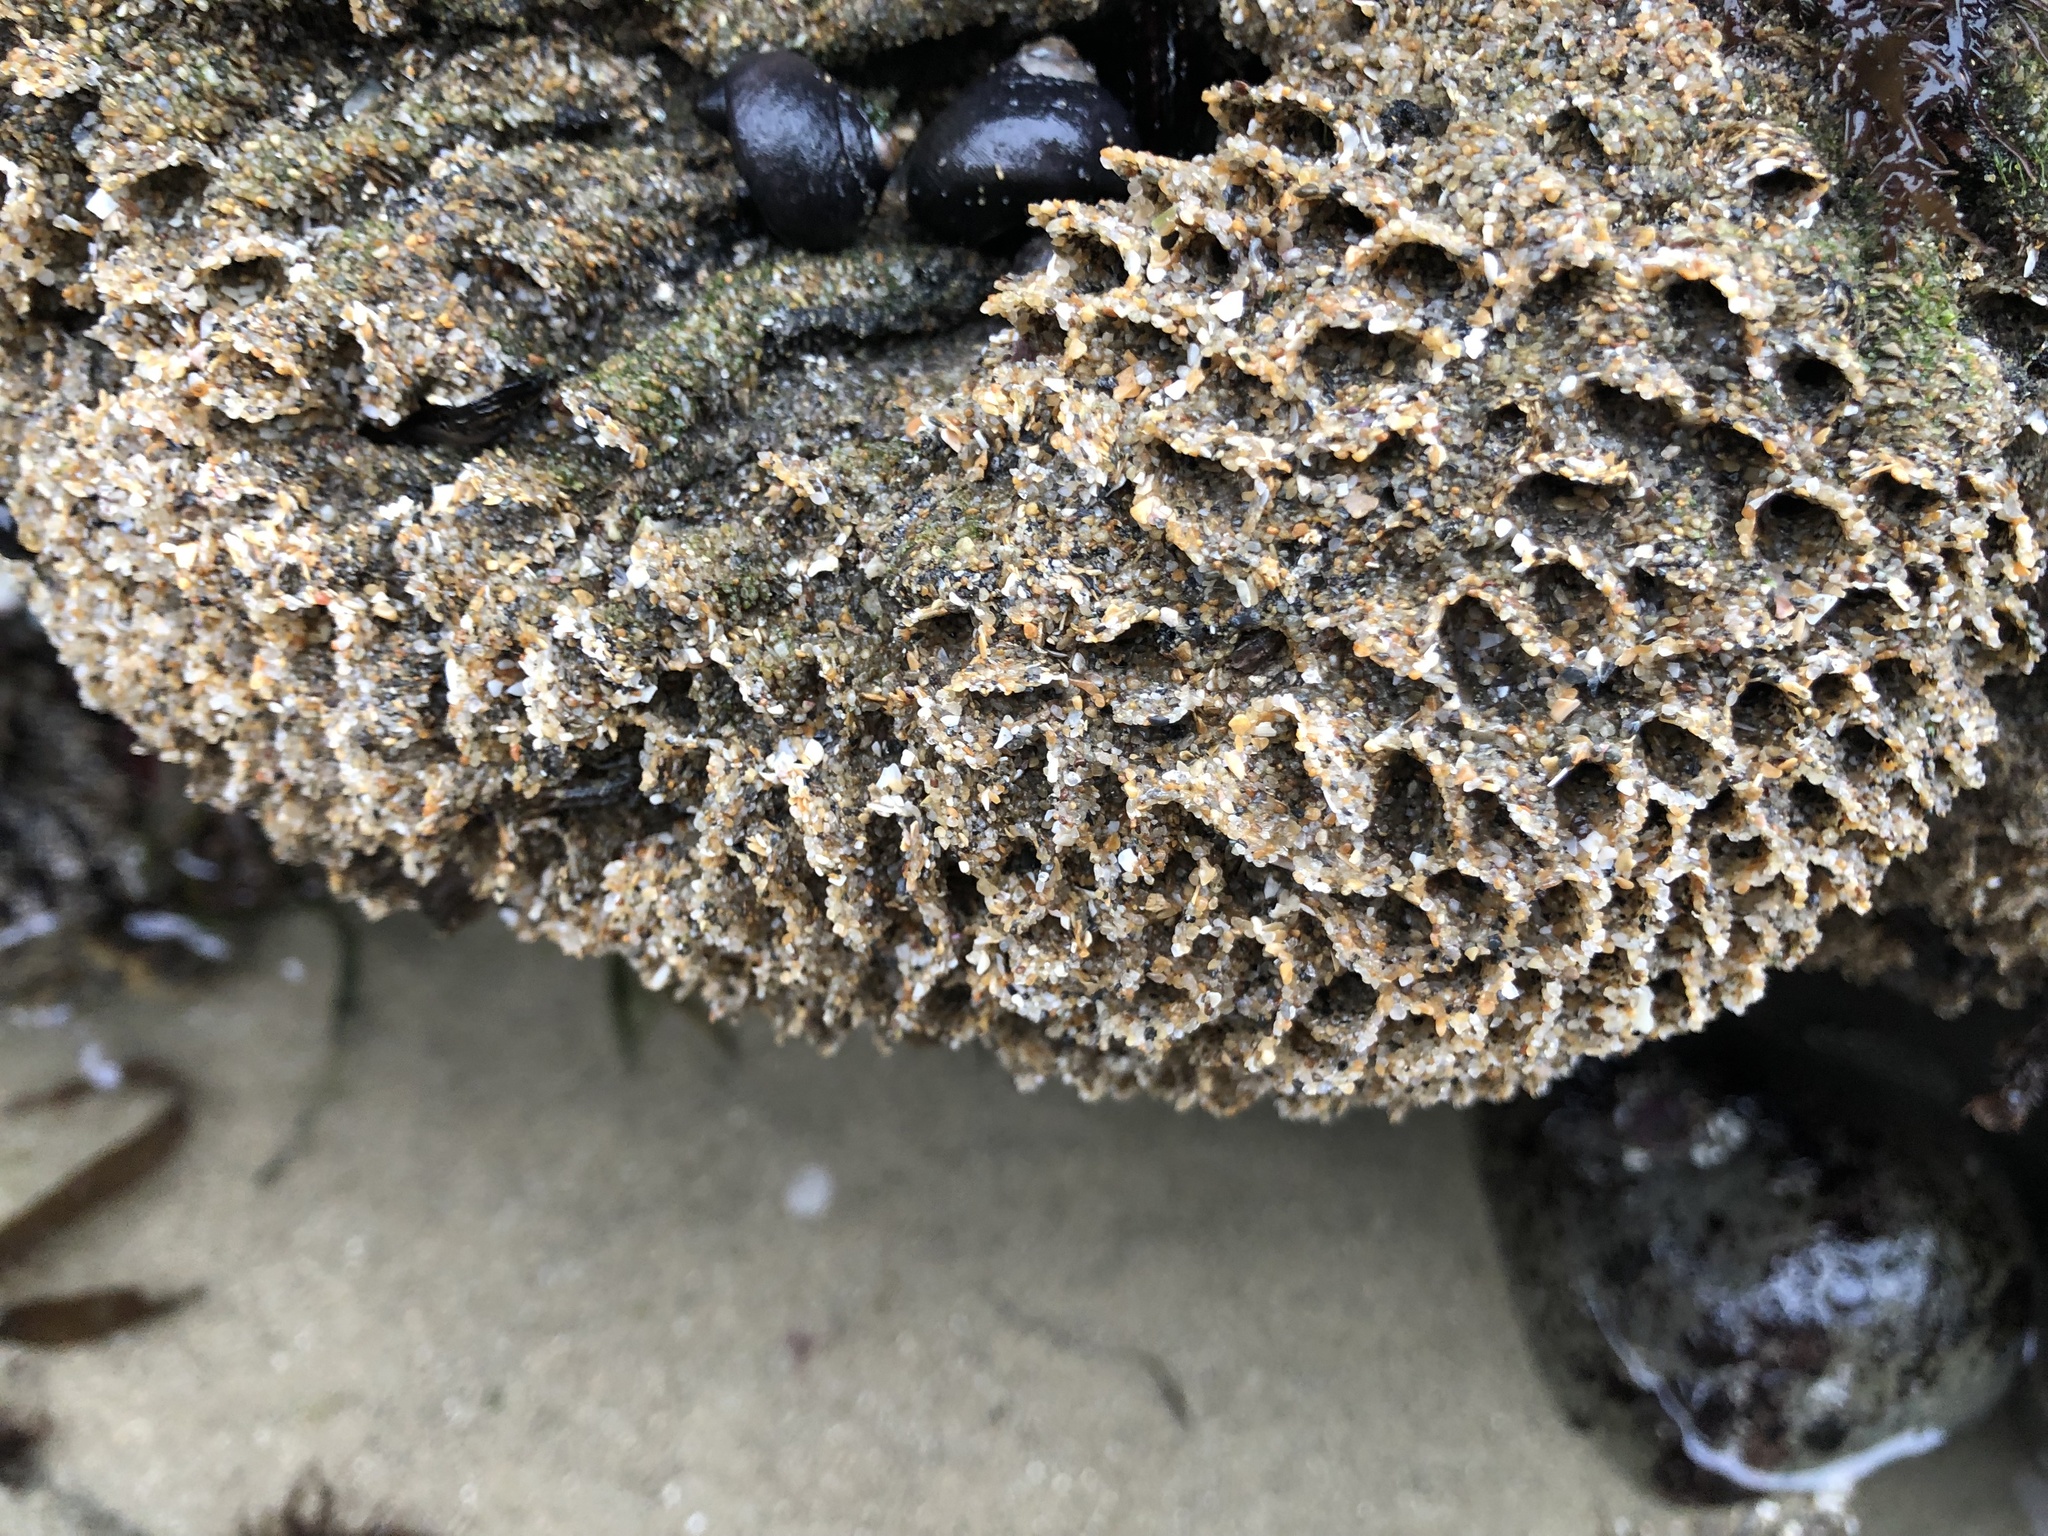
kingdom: Animalia
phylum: Annelida
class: Polychaeta
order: Sabellida
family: Sabellariidae
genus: Phragmatopoma
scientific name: Phragmatopoma californica
